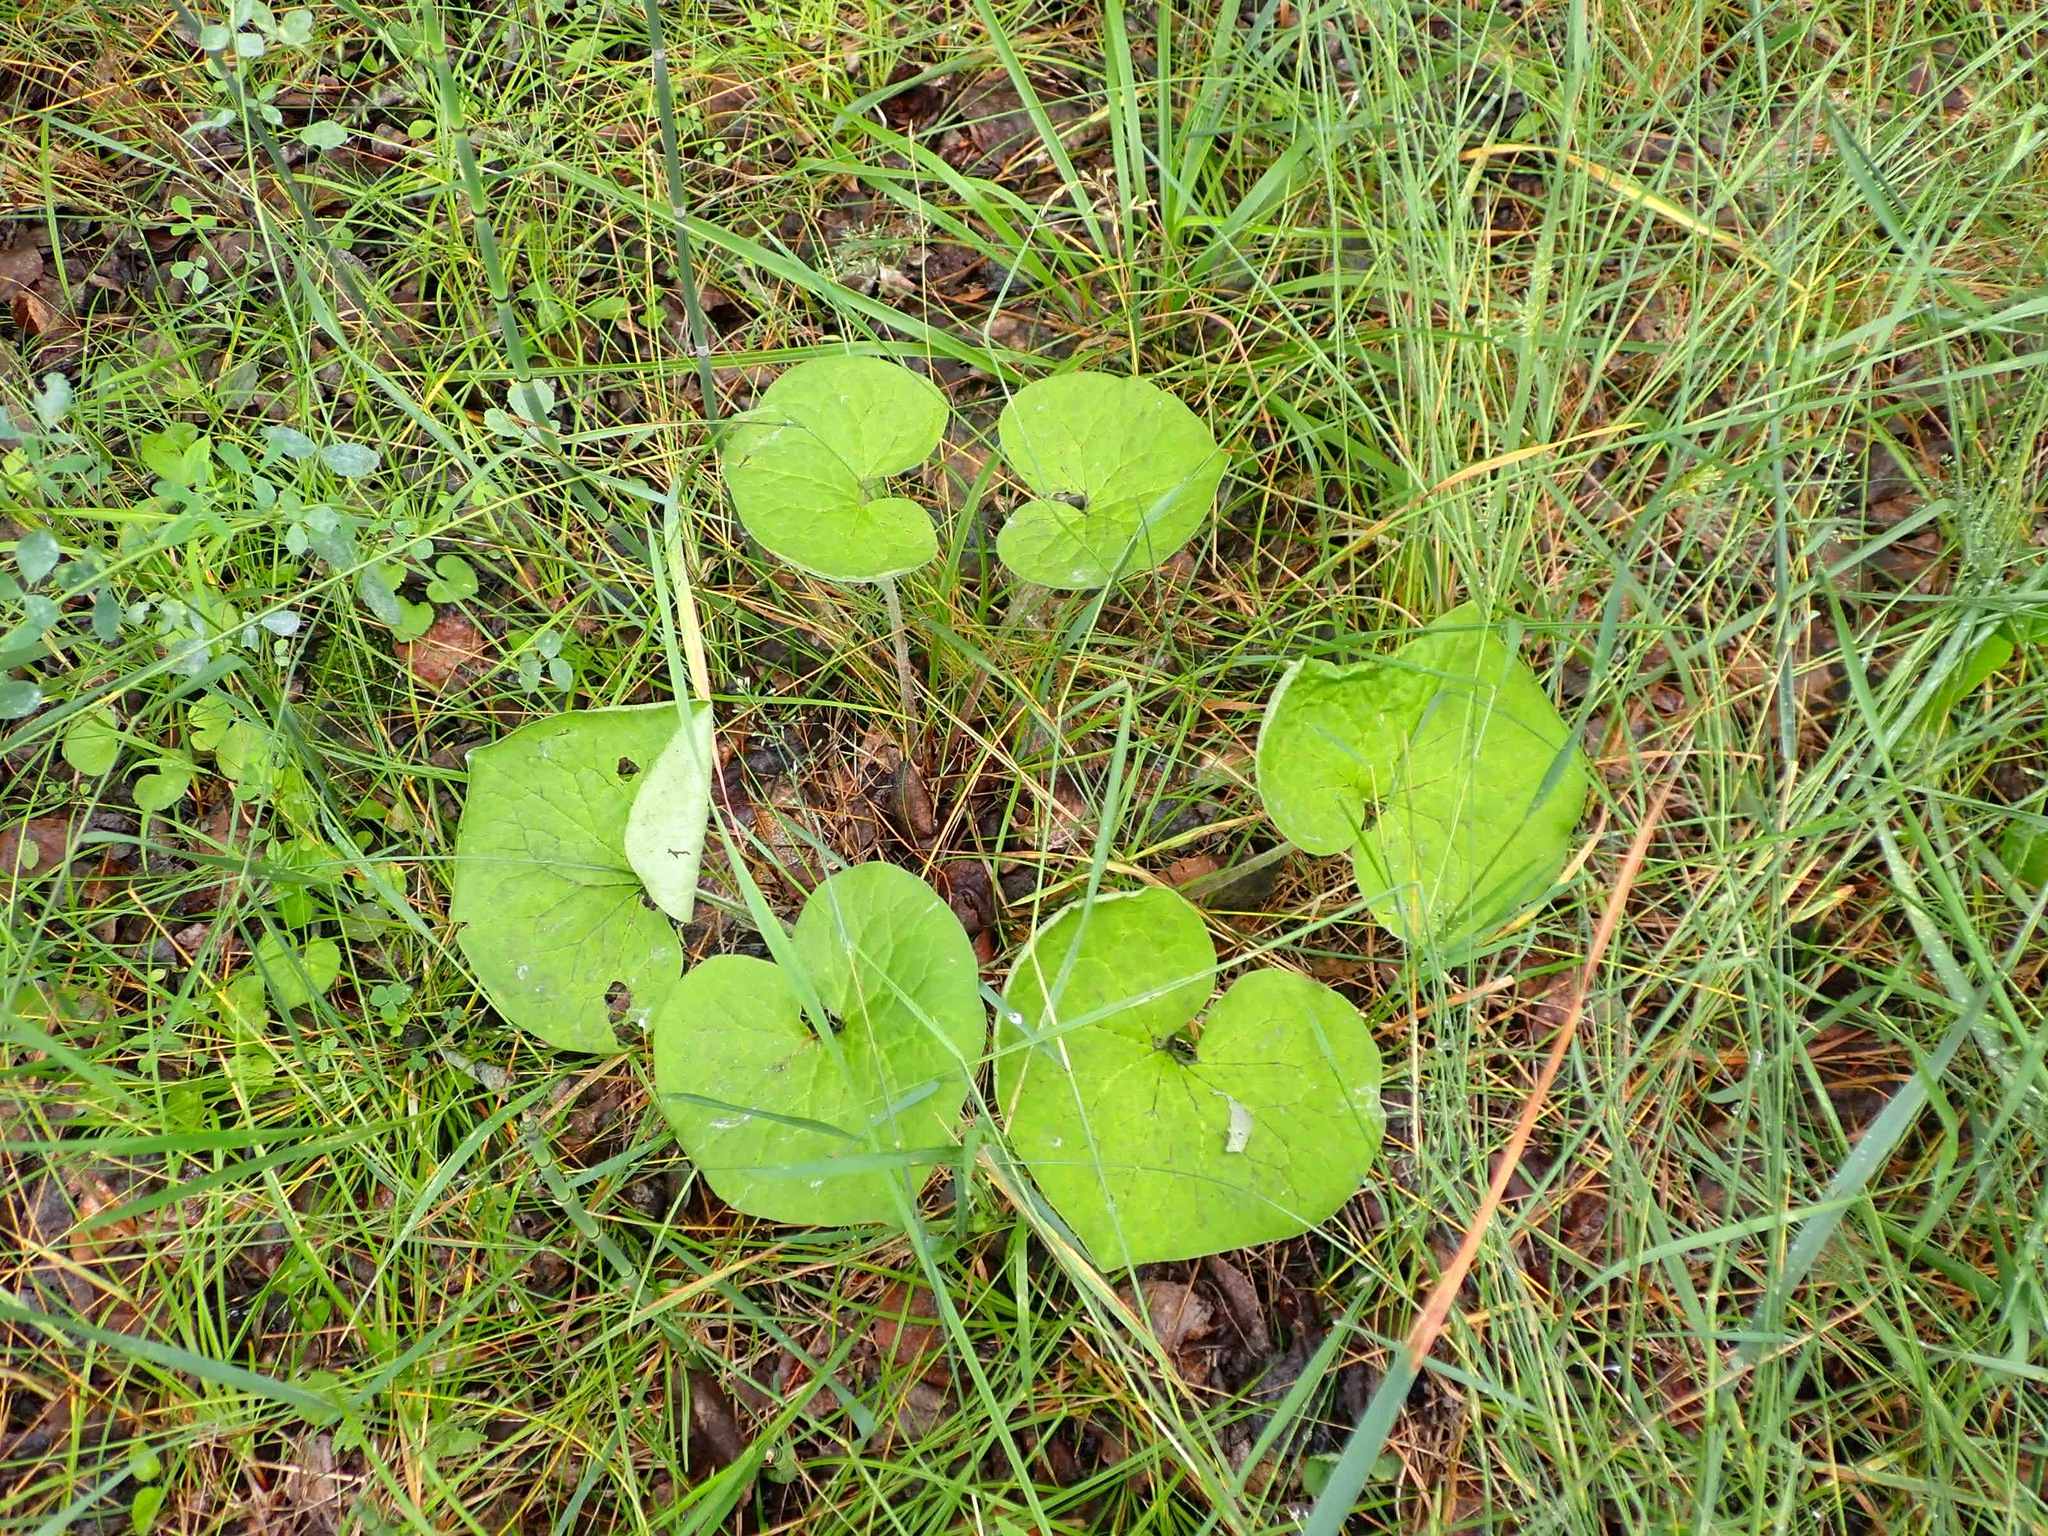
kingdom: Plantae
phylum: Tracheophyta
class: Magnoliopsida
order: Piperales
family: Aristolochiaceae
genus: Asarum
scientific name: Asarum canadense
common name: Wild ginger
